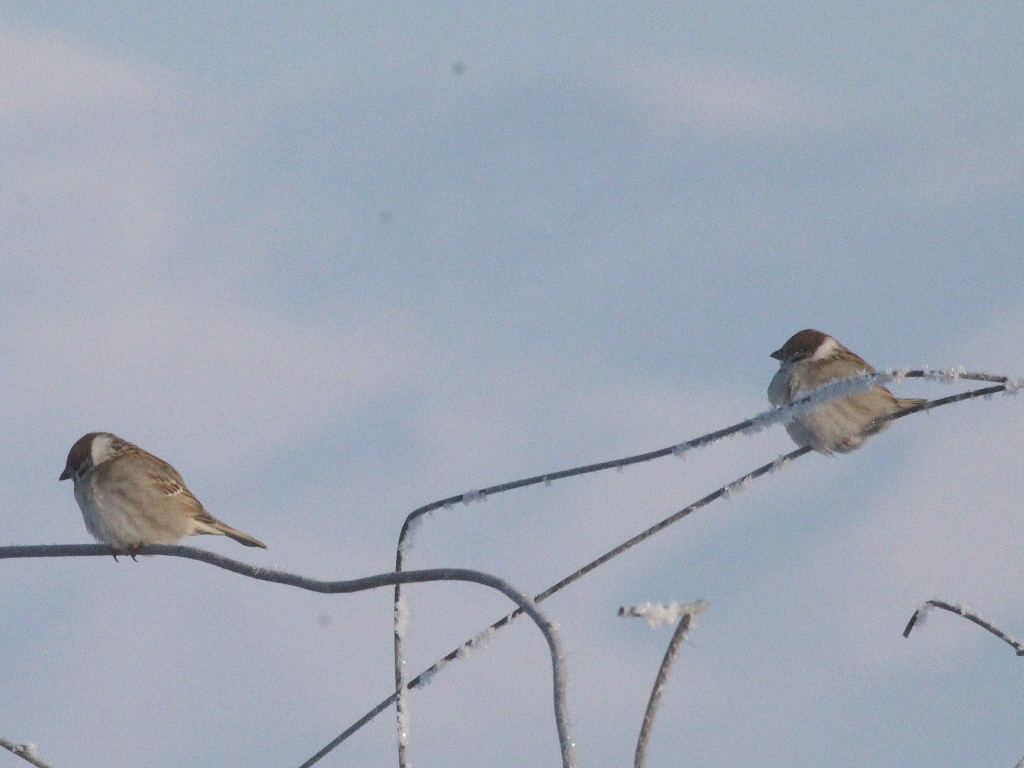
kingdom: Animalia
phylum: Chordata
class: Aves
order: Passeriformes
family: Passeridae
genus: Passer
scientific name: Passer montanus
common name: Eurasian tree sparrow
